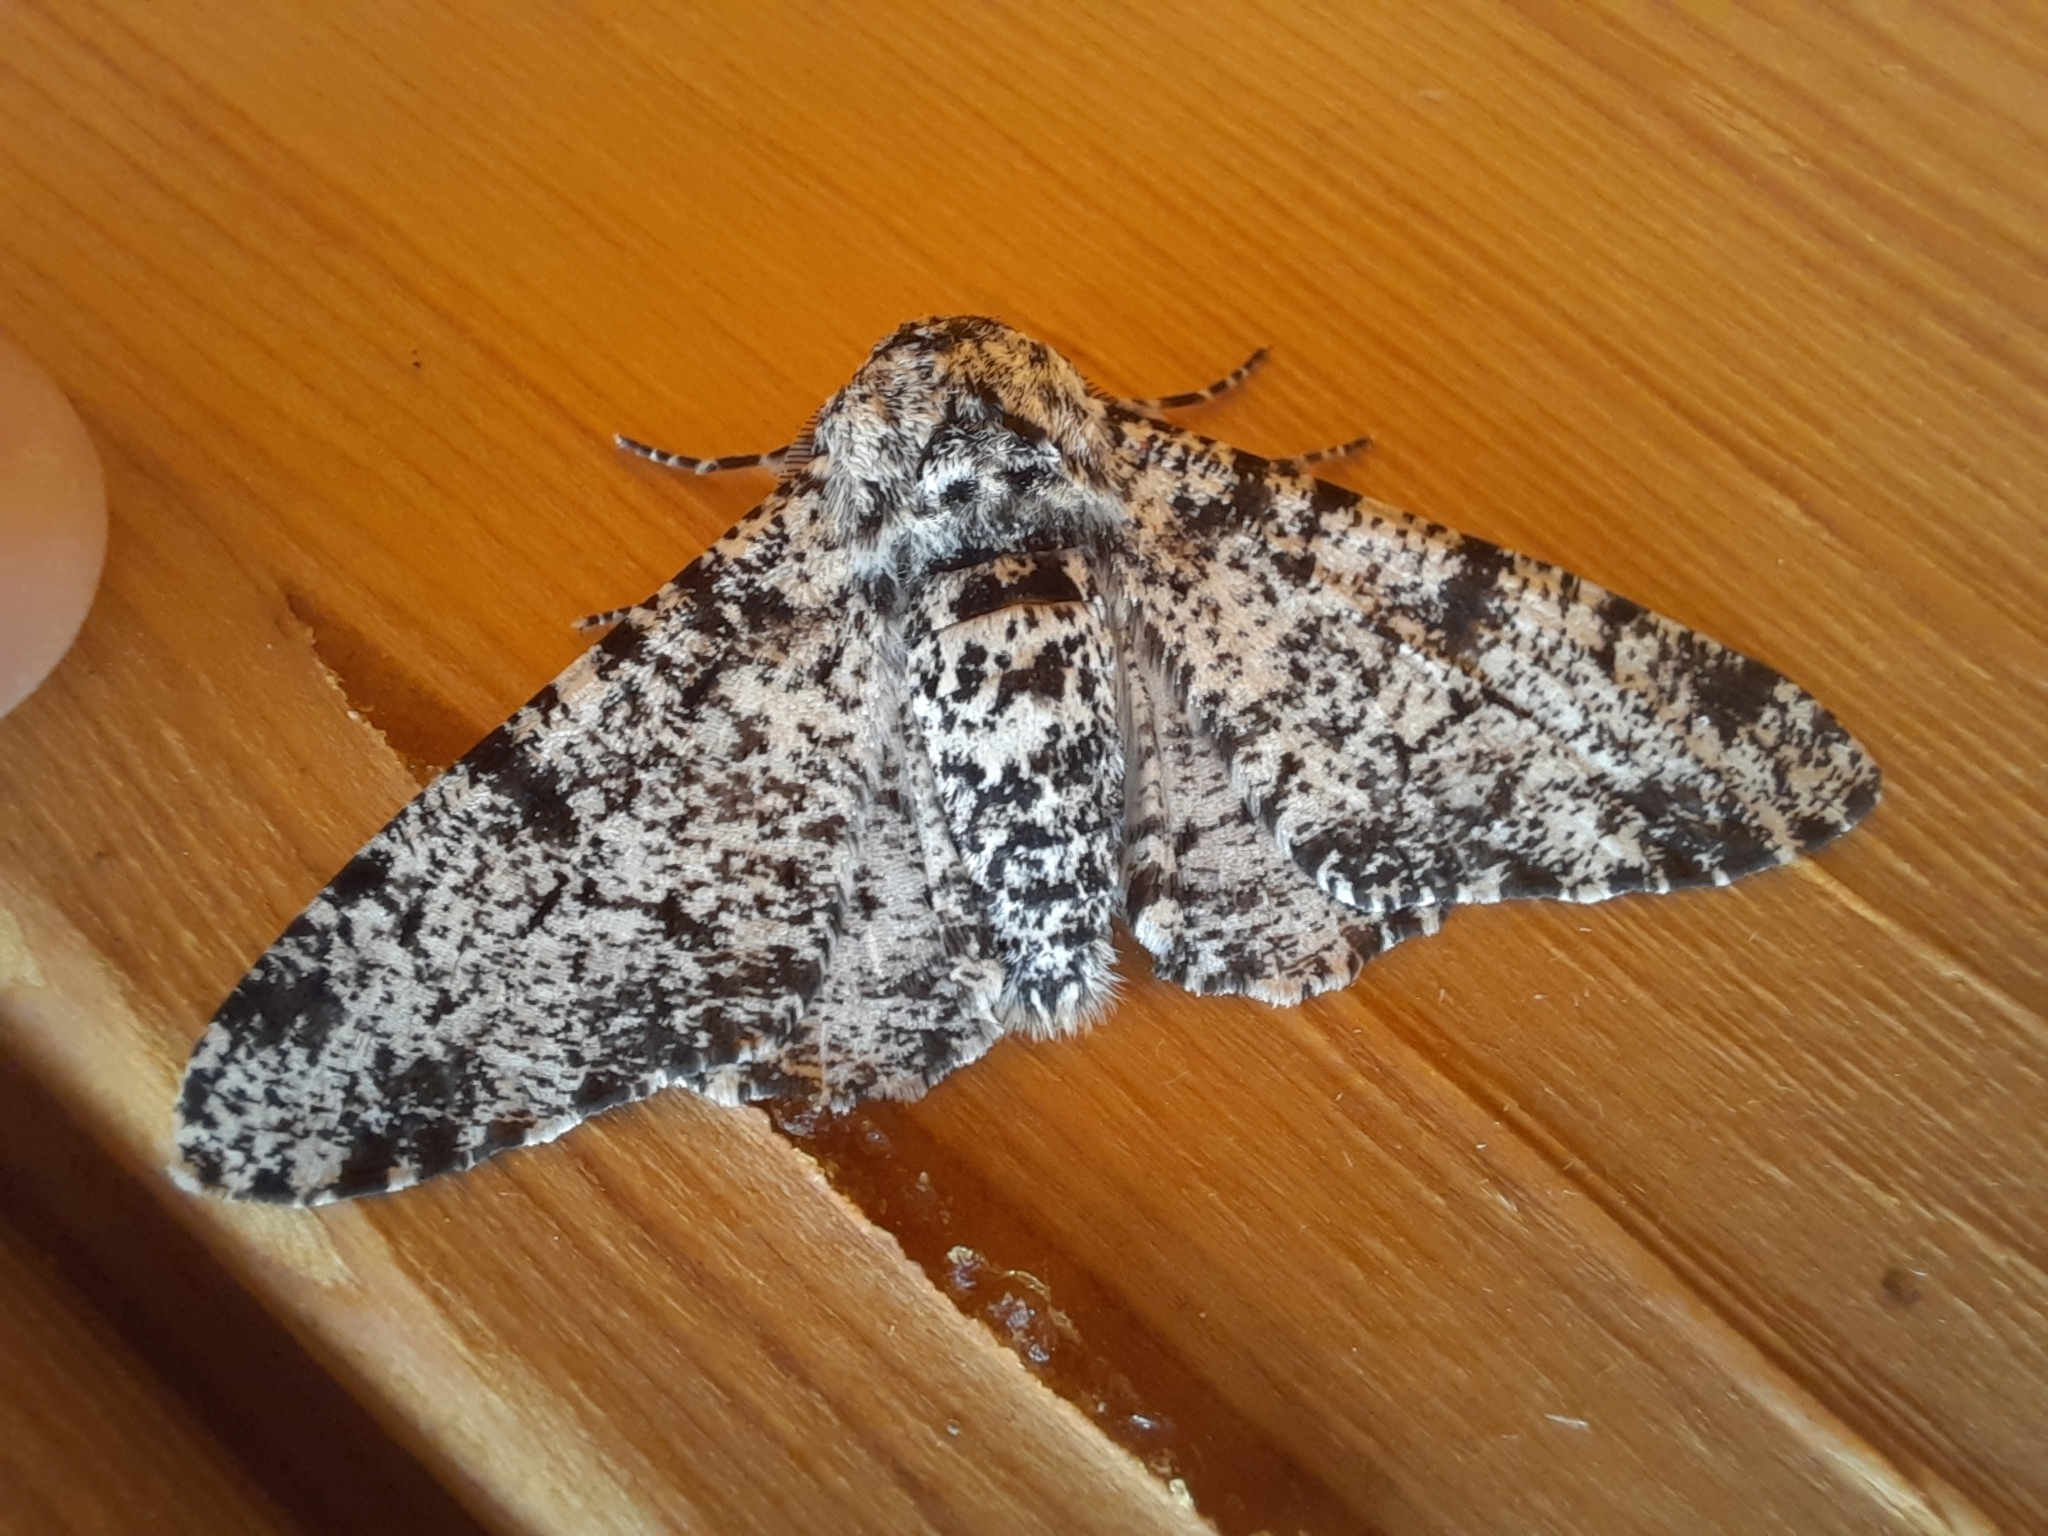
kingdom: Animalia
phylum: Arthropoda
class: Insecta
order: Lepidoptera
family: Geometridae
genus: Biston
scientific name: Biston betularia
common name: Peppered moth
